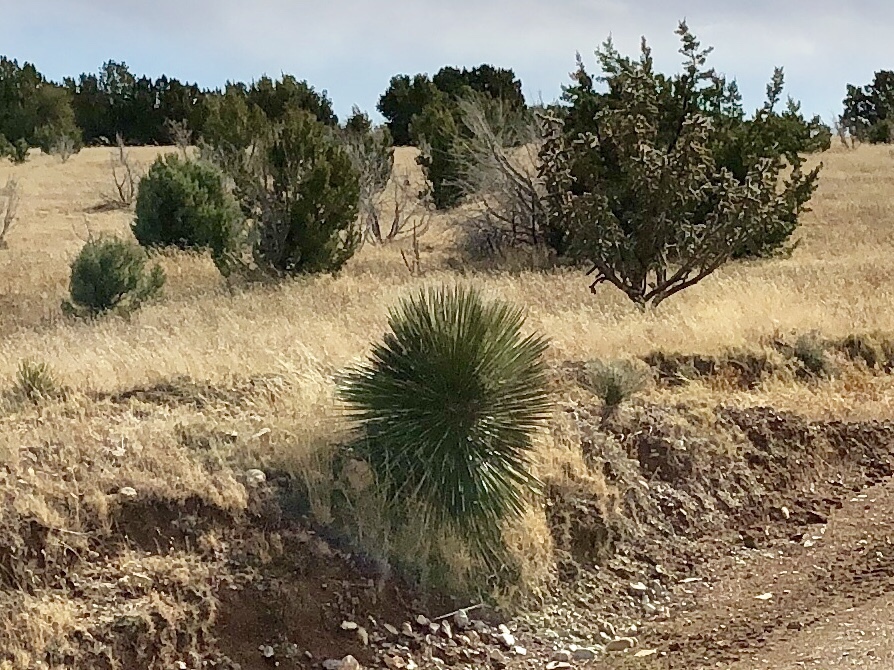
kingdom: Plantae
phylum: Tracheophyta
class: Liliopsida
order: Asparagales
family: Asparagaceae
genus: Yucca
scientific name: Yucca elata
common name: Palmella
